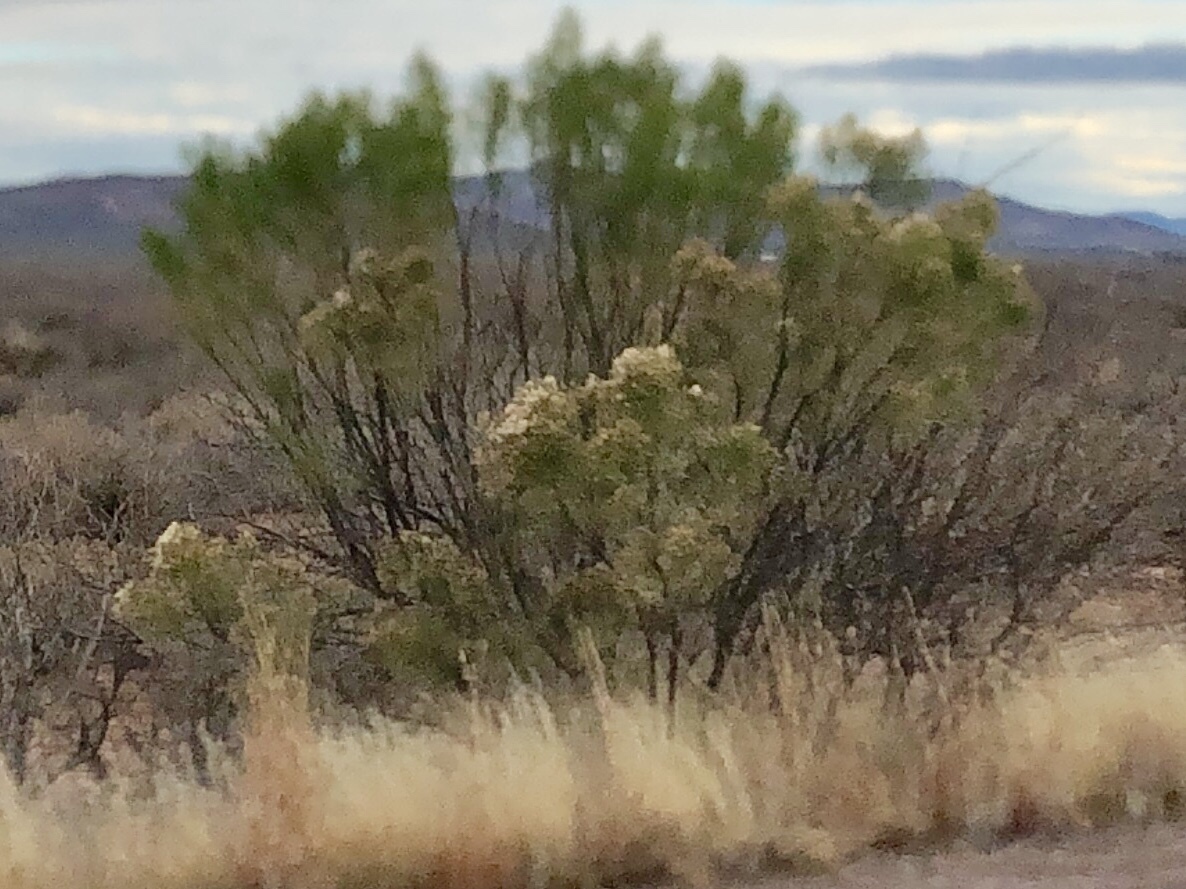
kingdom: Plantae
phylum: Tracheophyta
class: Magnoliopsida
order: Asterales
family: Asteraceae
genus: Baccharis
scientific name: Baccharis sarothroides
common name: Desert-broom
